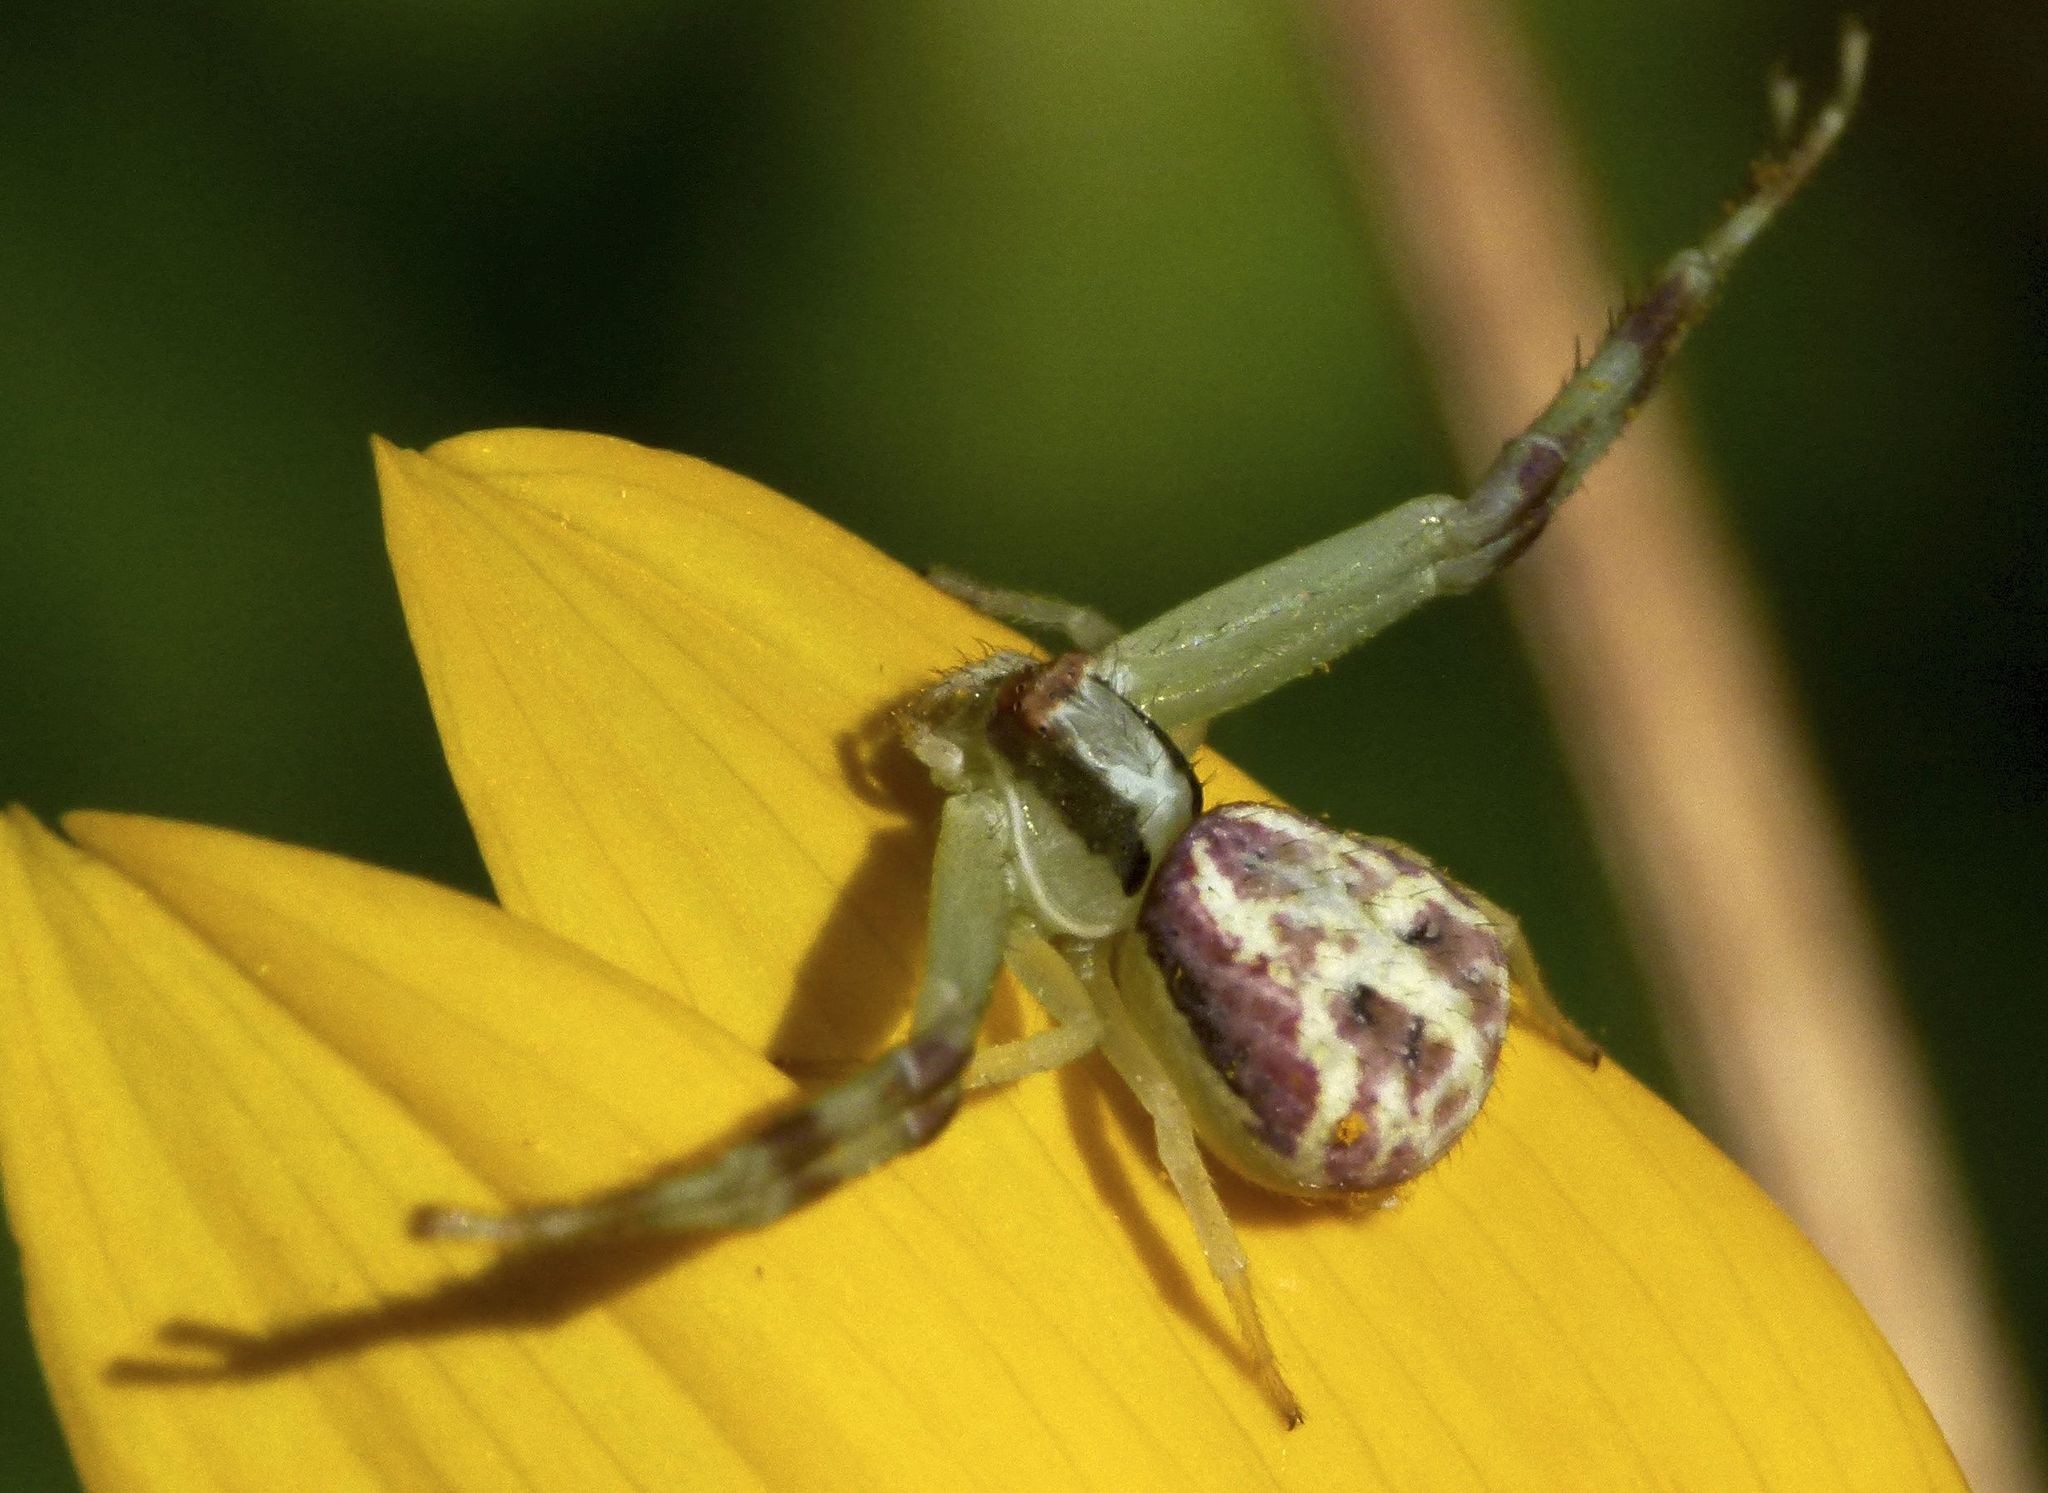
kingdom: Animalia
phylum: Arthropoda
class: Arachnida
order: Araneae
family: Thomisidae
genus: Mecaphesa
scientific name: Mecaphesa dubia
